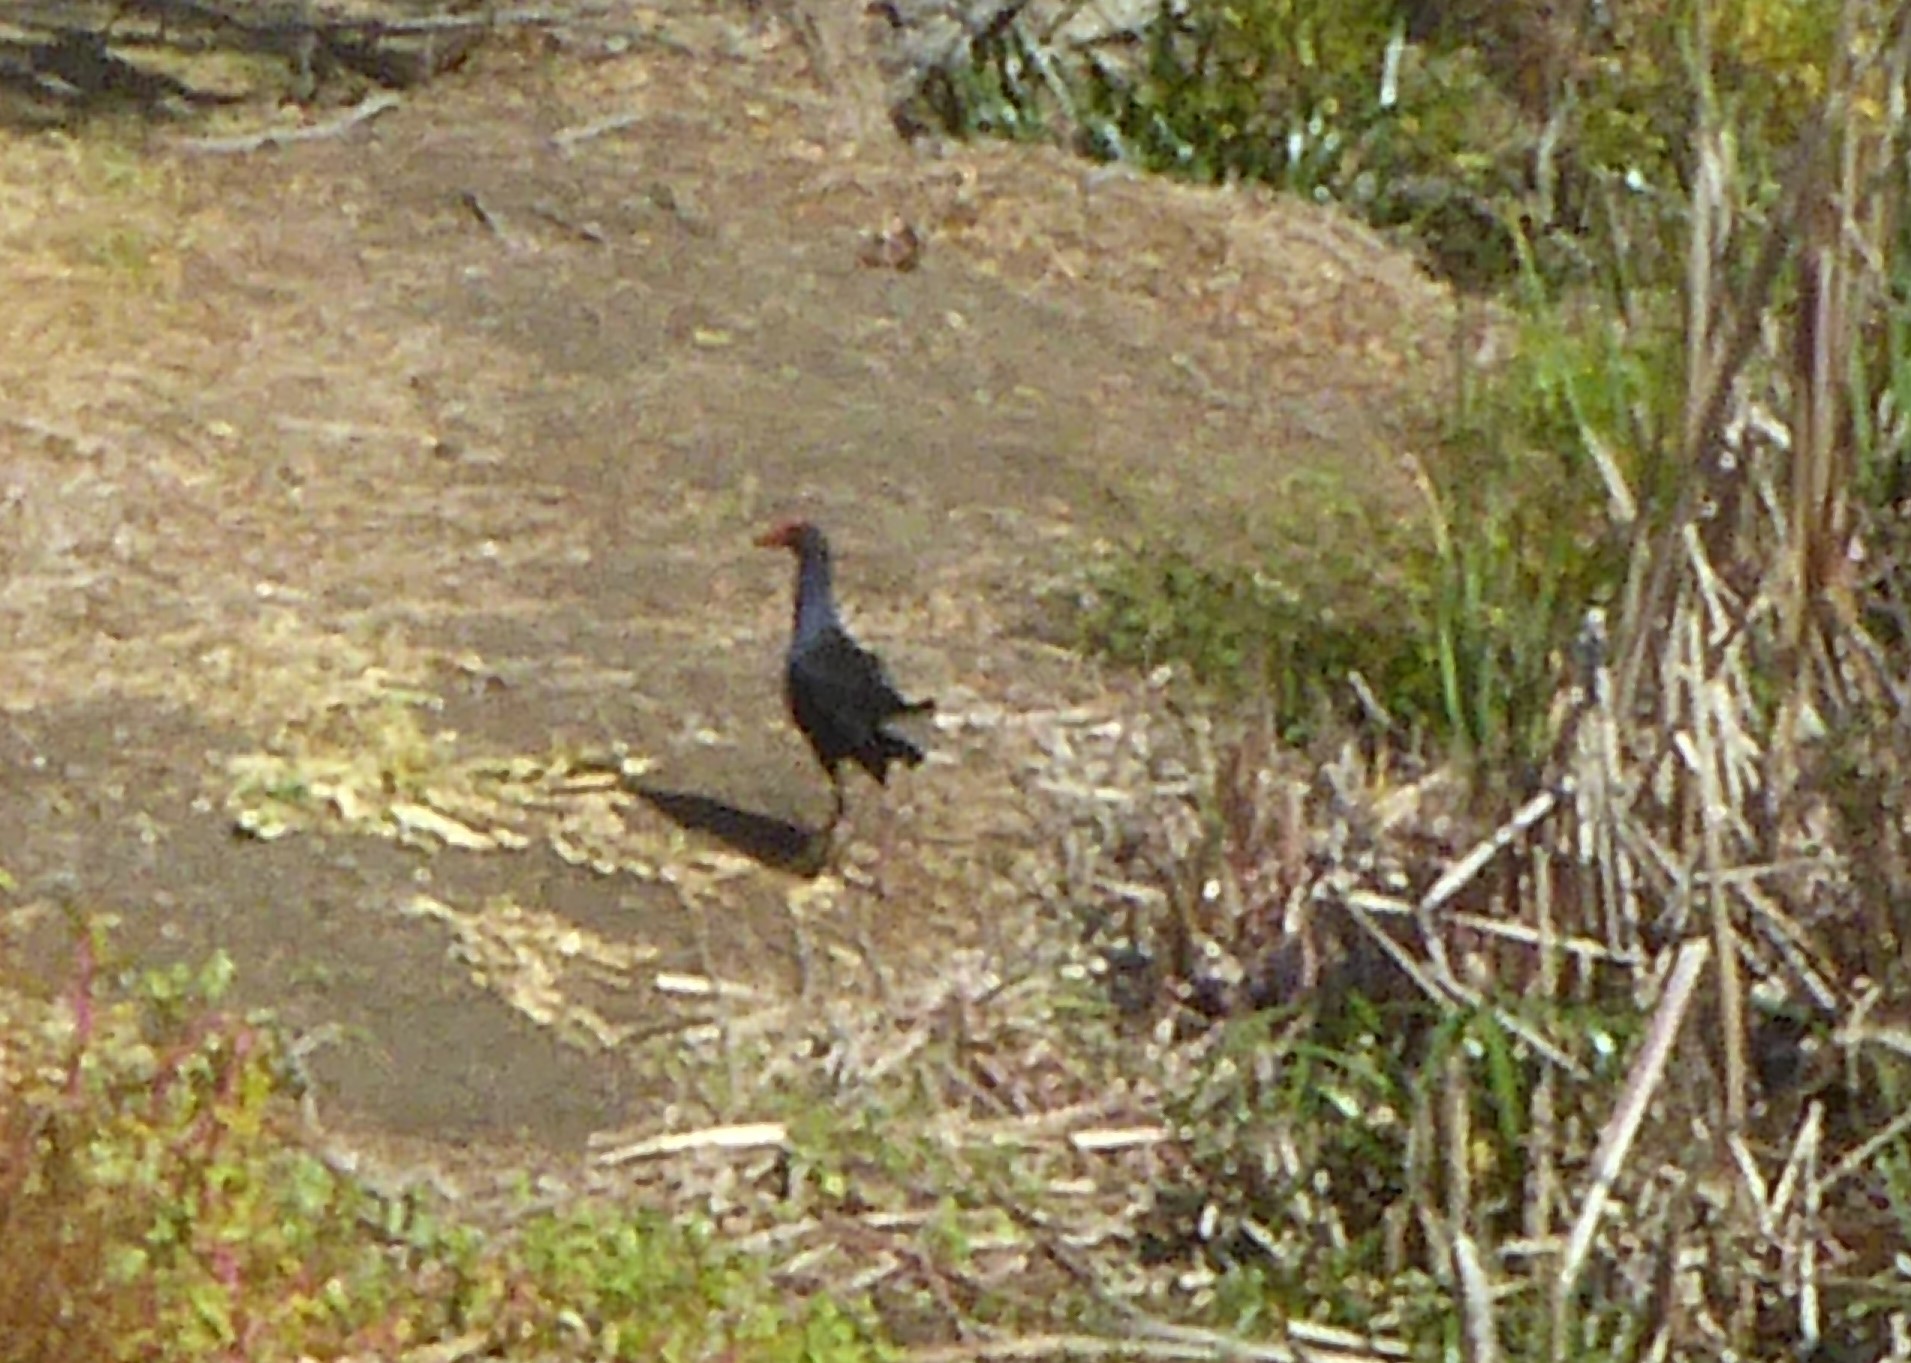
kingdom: Animalia
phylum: Chordata
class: Aves
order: Gruiformes
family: Rallidae
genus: Porphyrio
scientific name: Porphyrio melanotus
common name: Australasian swamphen
